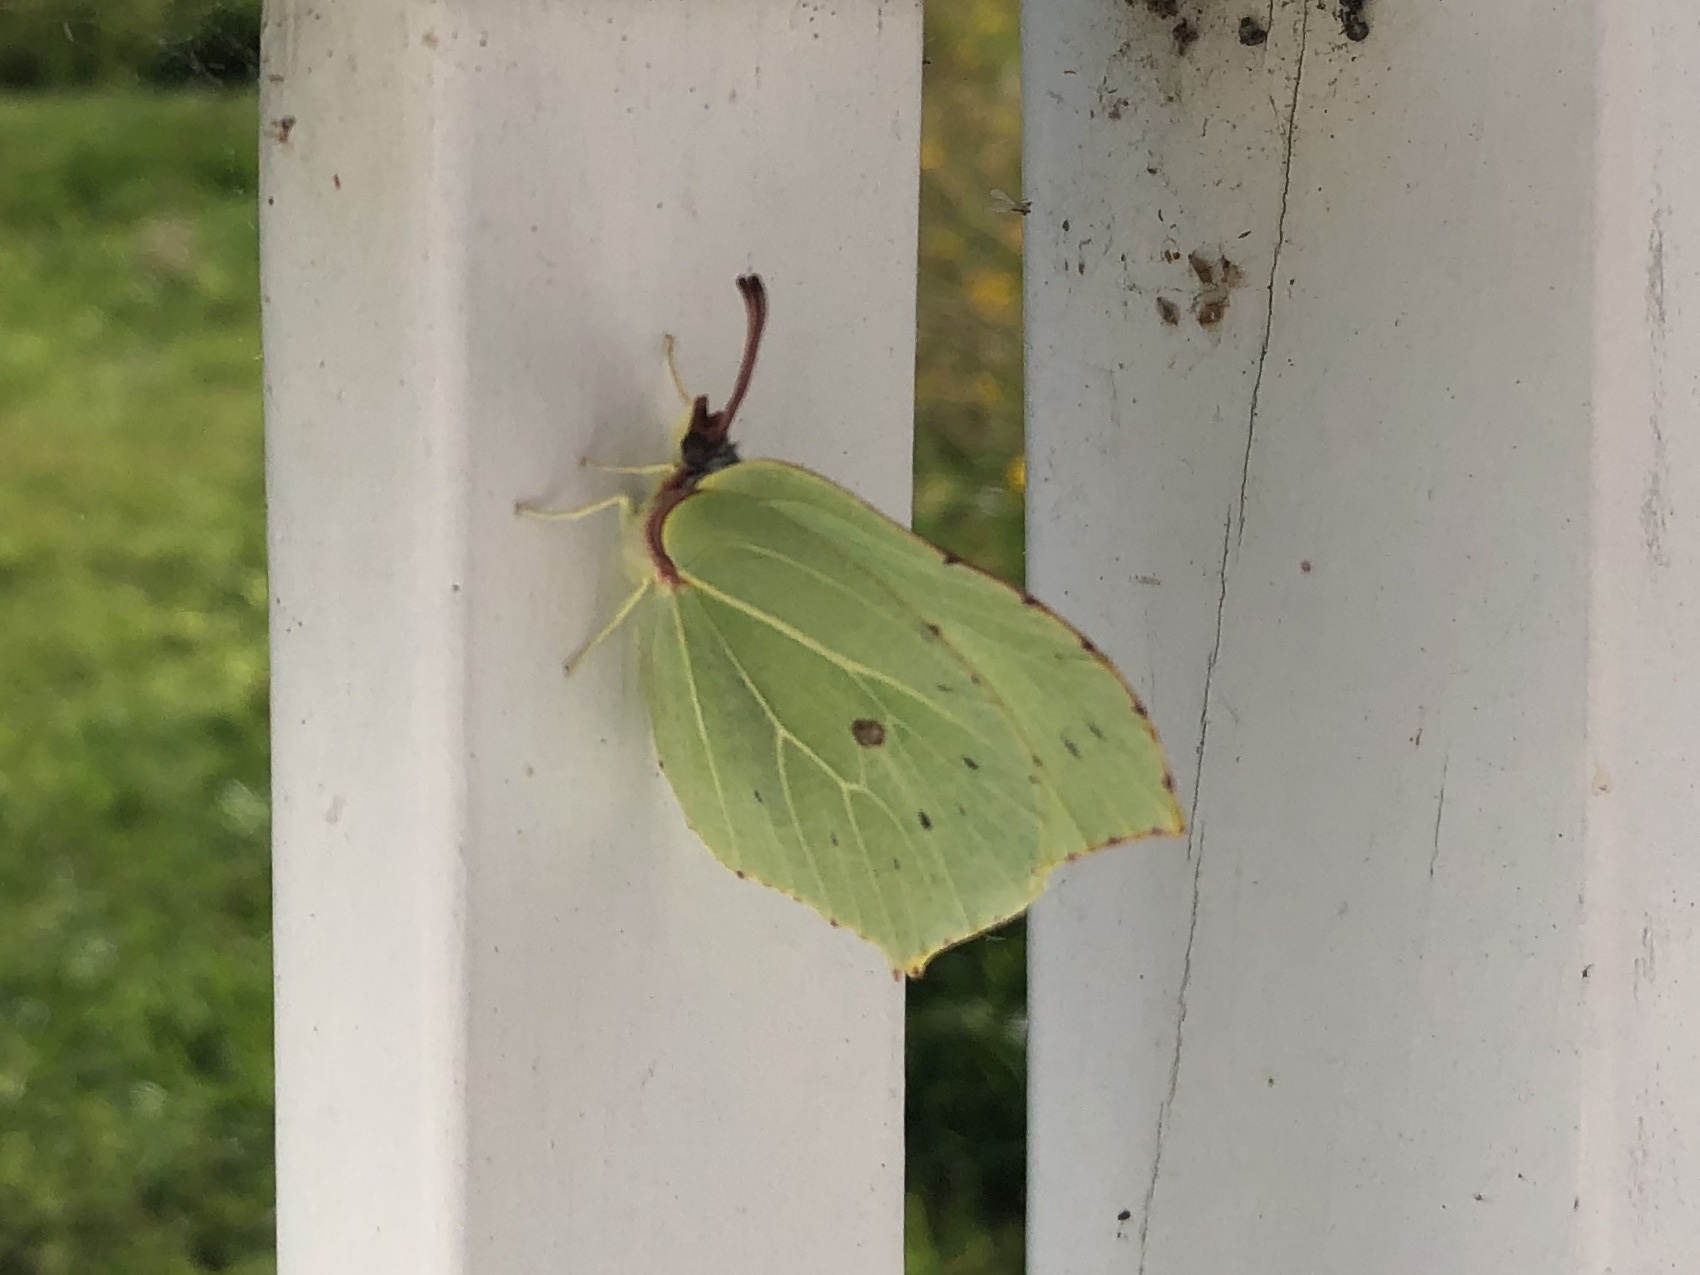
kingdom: Animalia
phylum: Arthropoda
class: Insecta
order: Lepidoptera
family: Pieridae
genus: Gonepteryx
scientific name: Gonepteryx rhamni
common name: Brimstone
